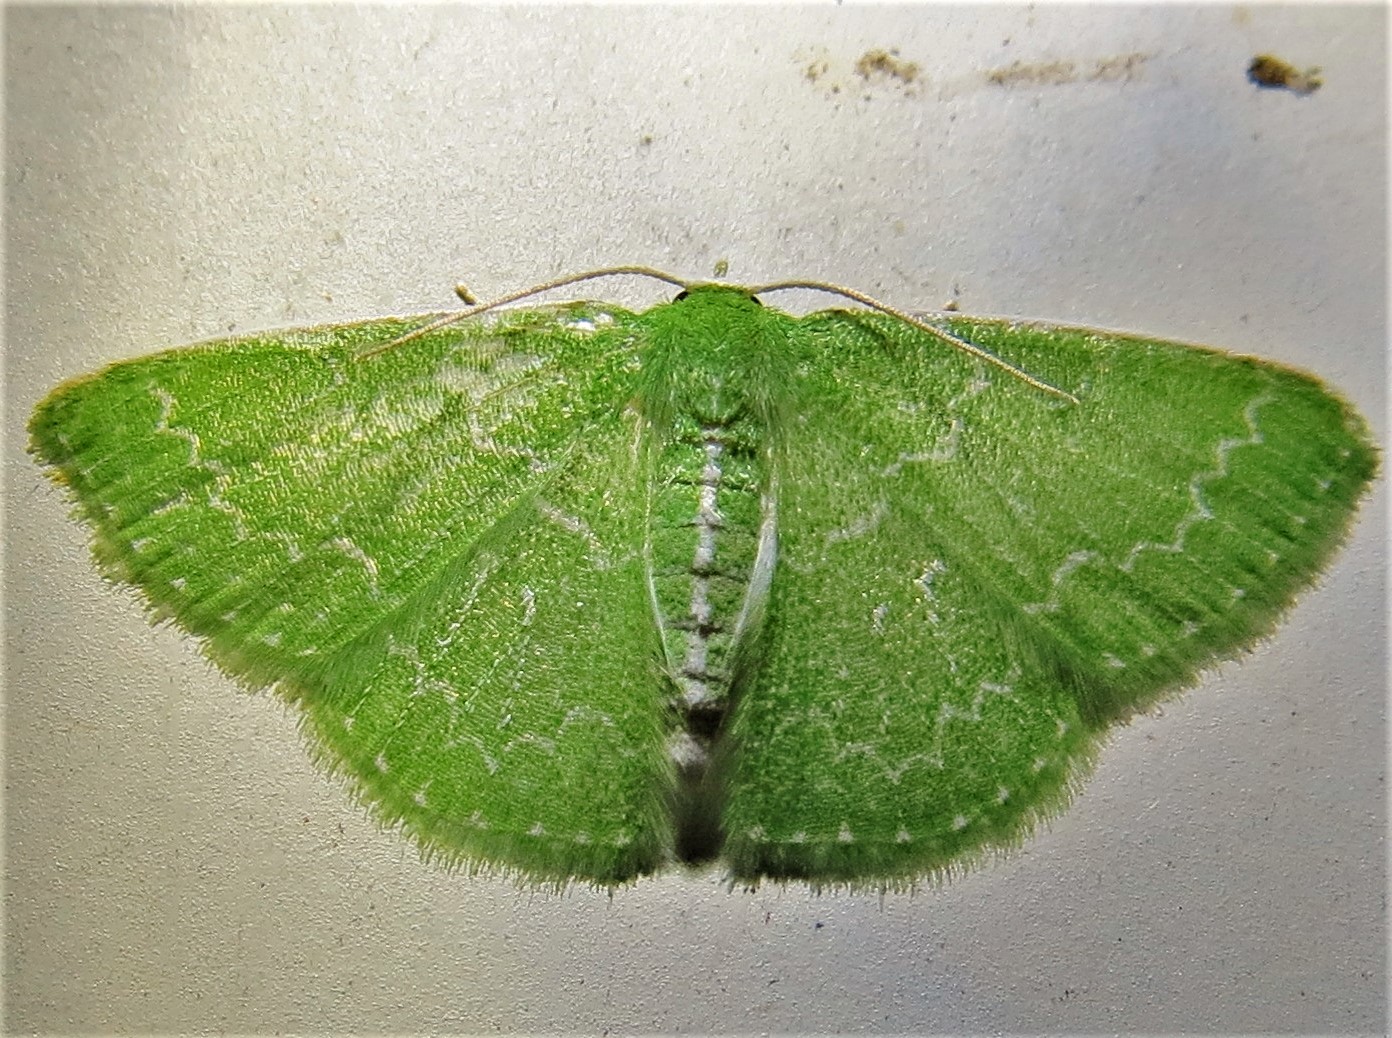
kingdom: Animalia
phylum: Arthropoda
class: Insecta
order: Lepidoptera
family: Geometridae
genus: Synchlora
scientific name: Synchlora frondaria
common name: Southern emerald
